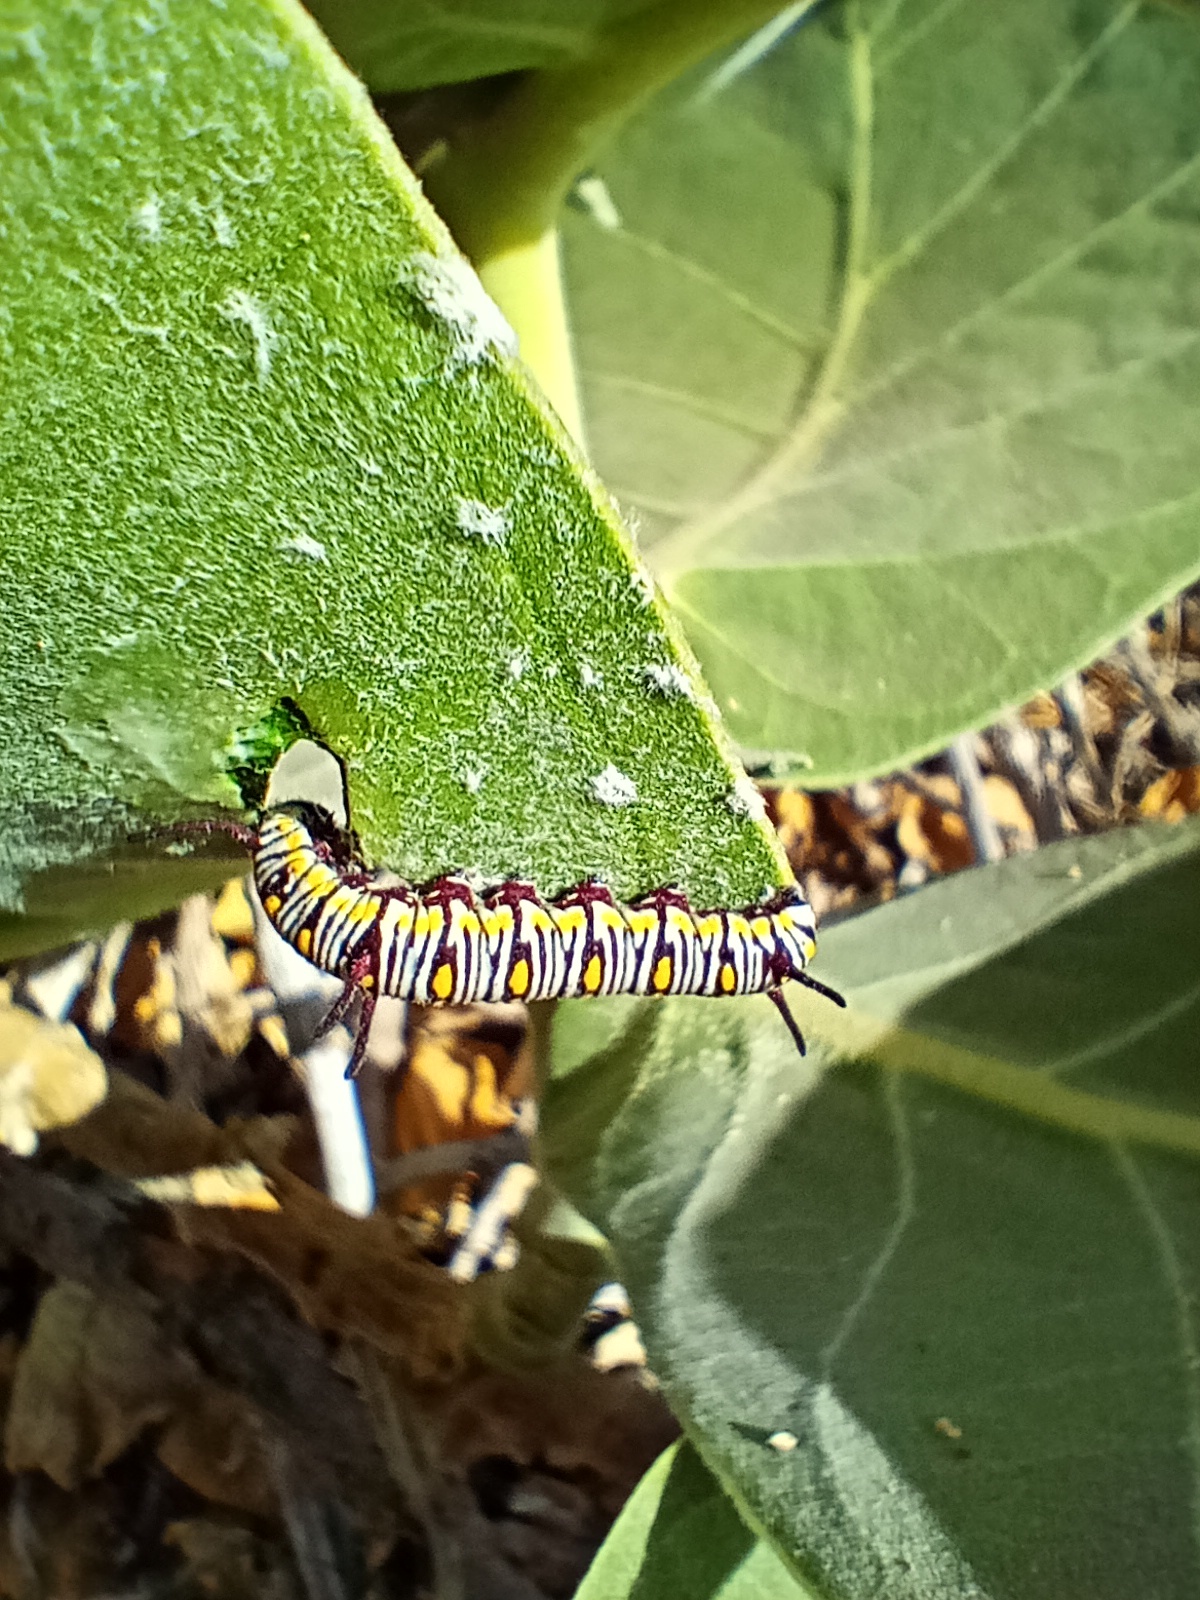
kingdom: Animalia
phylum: Arthropoda
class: Insecta
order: Lepidoptera
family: Nymphalidae
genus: Danaus
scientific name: Danaus chrysippus
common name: Plain tiger
